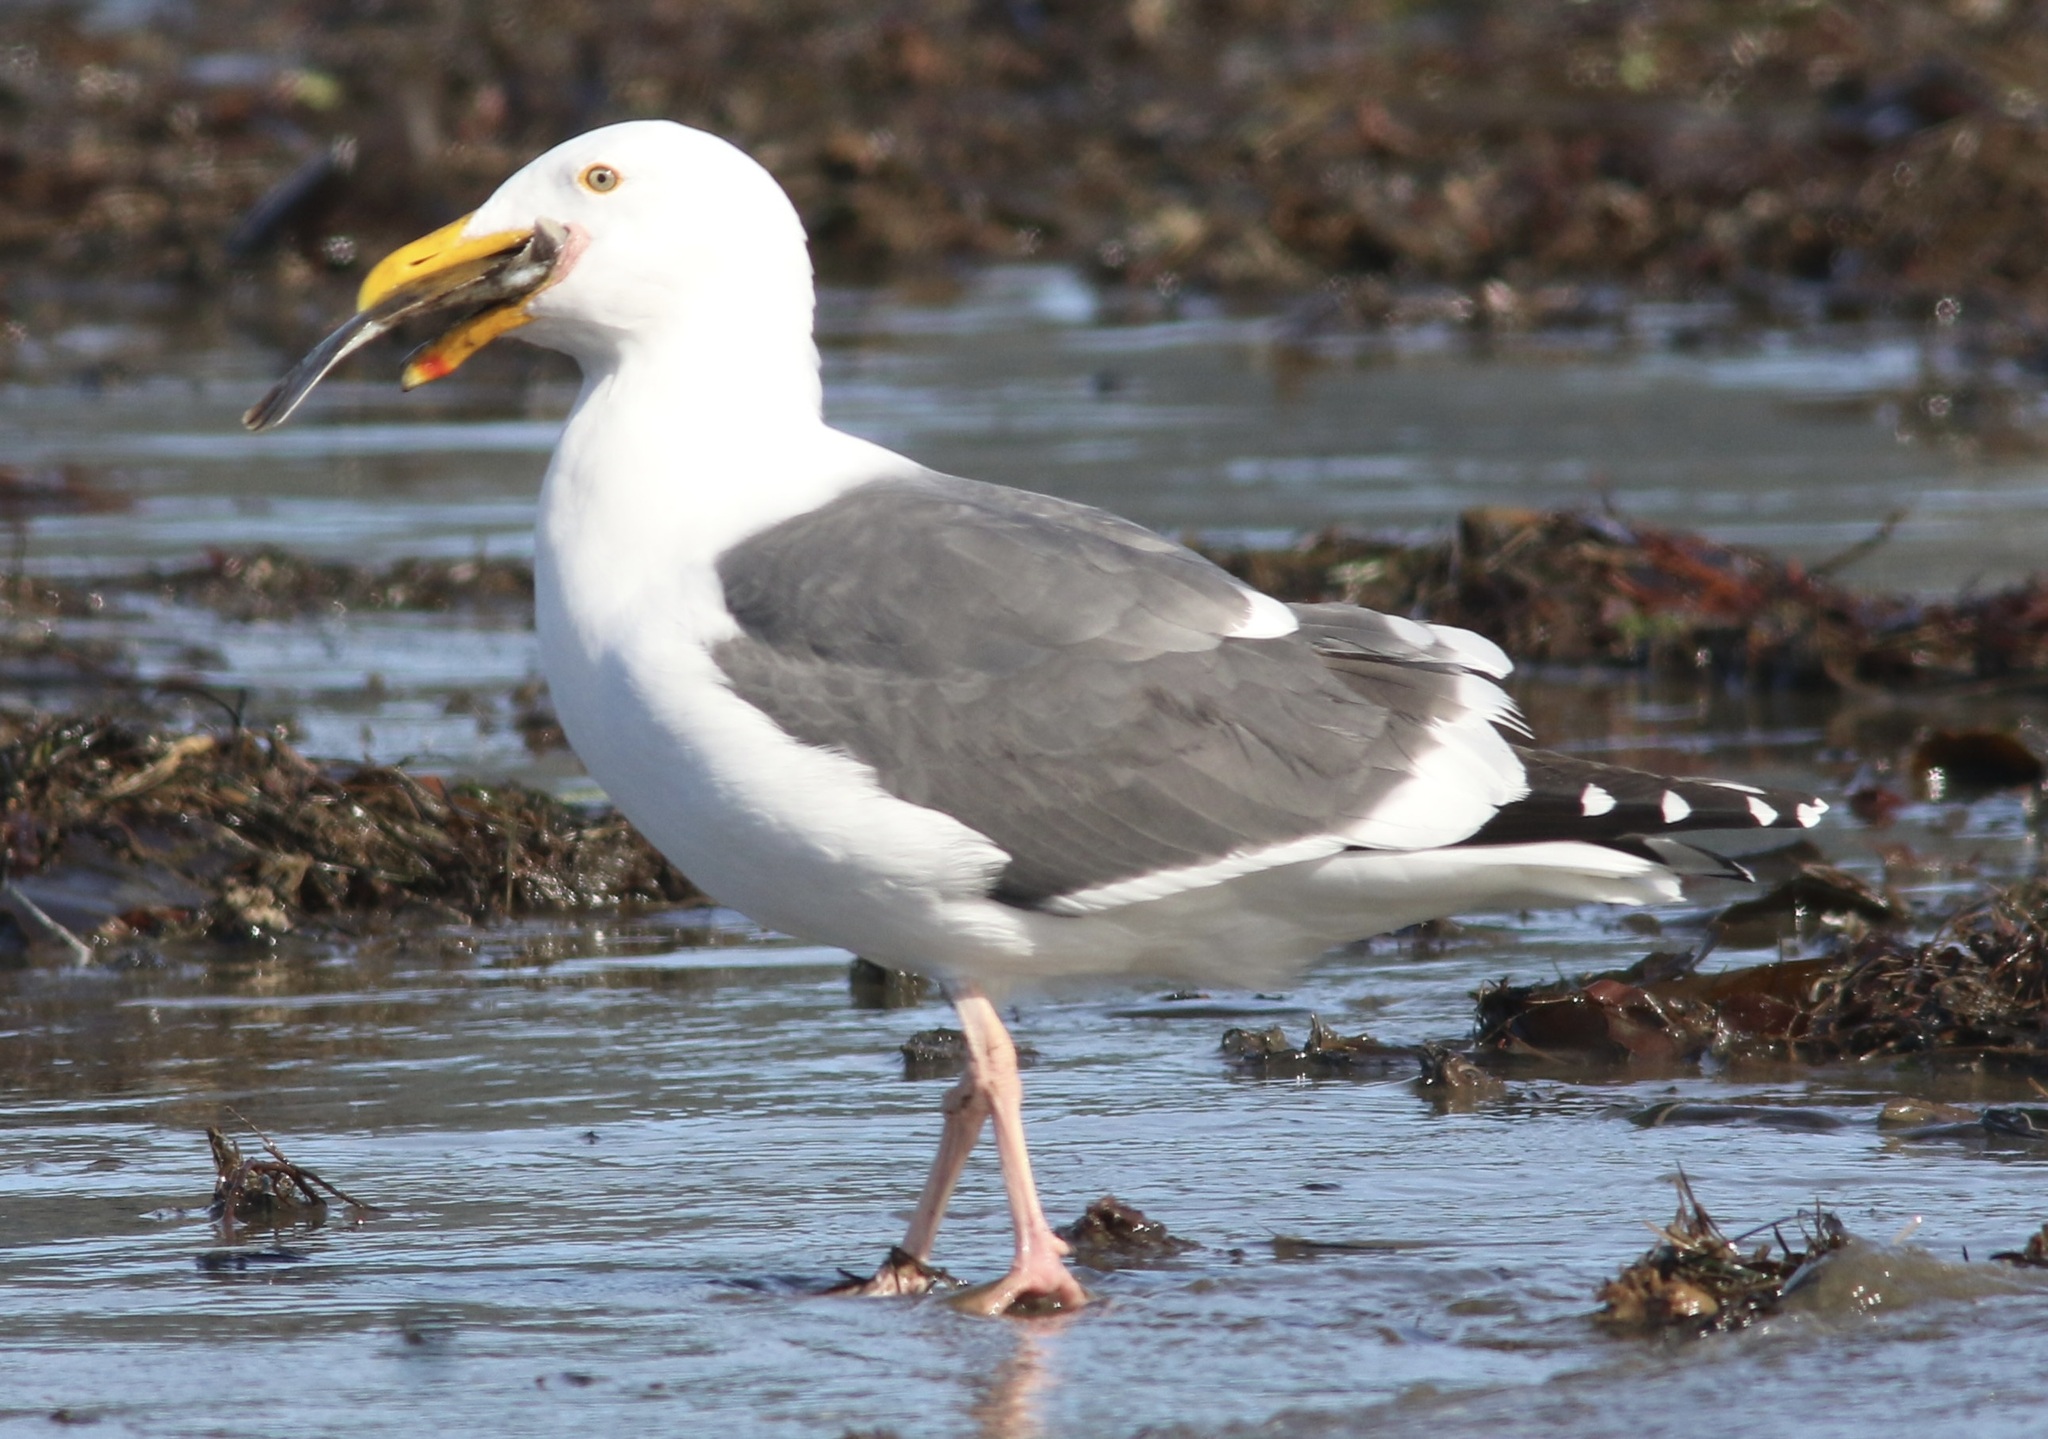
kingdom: Animalia
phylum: Chordata
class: Aves
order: Charadriiformes
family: Laridae
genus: Larus
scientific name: Larus occidentalis
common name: Western gull
